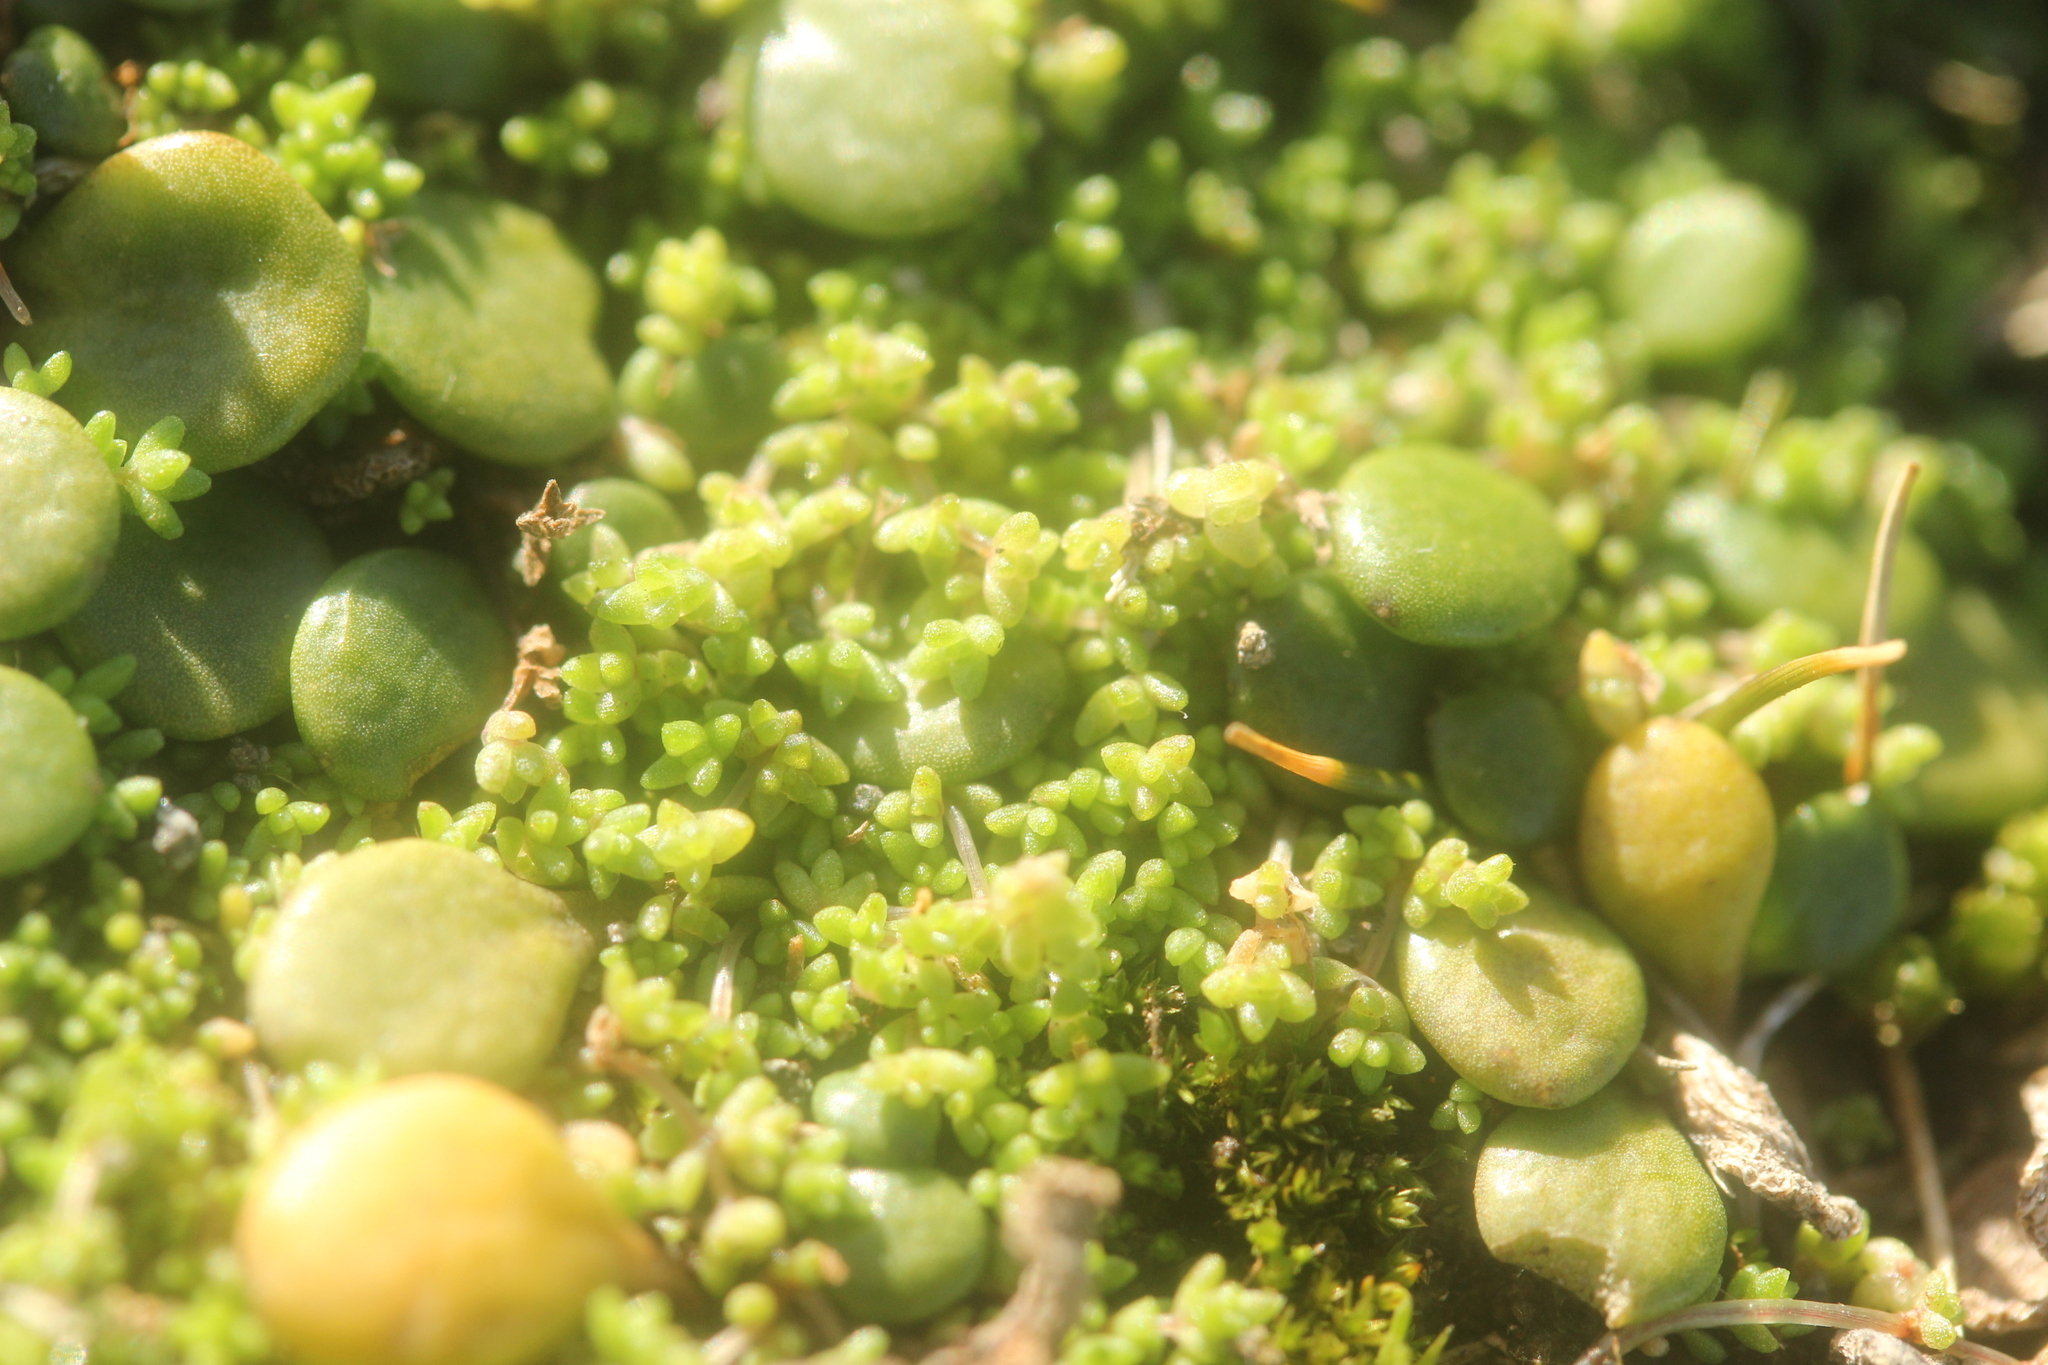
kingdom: Plantae
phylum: Tracheophyta
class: Magnoliopsida
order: Saxifragales
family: Crassulaceae
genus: Crassula
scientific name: Crassula manaia
